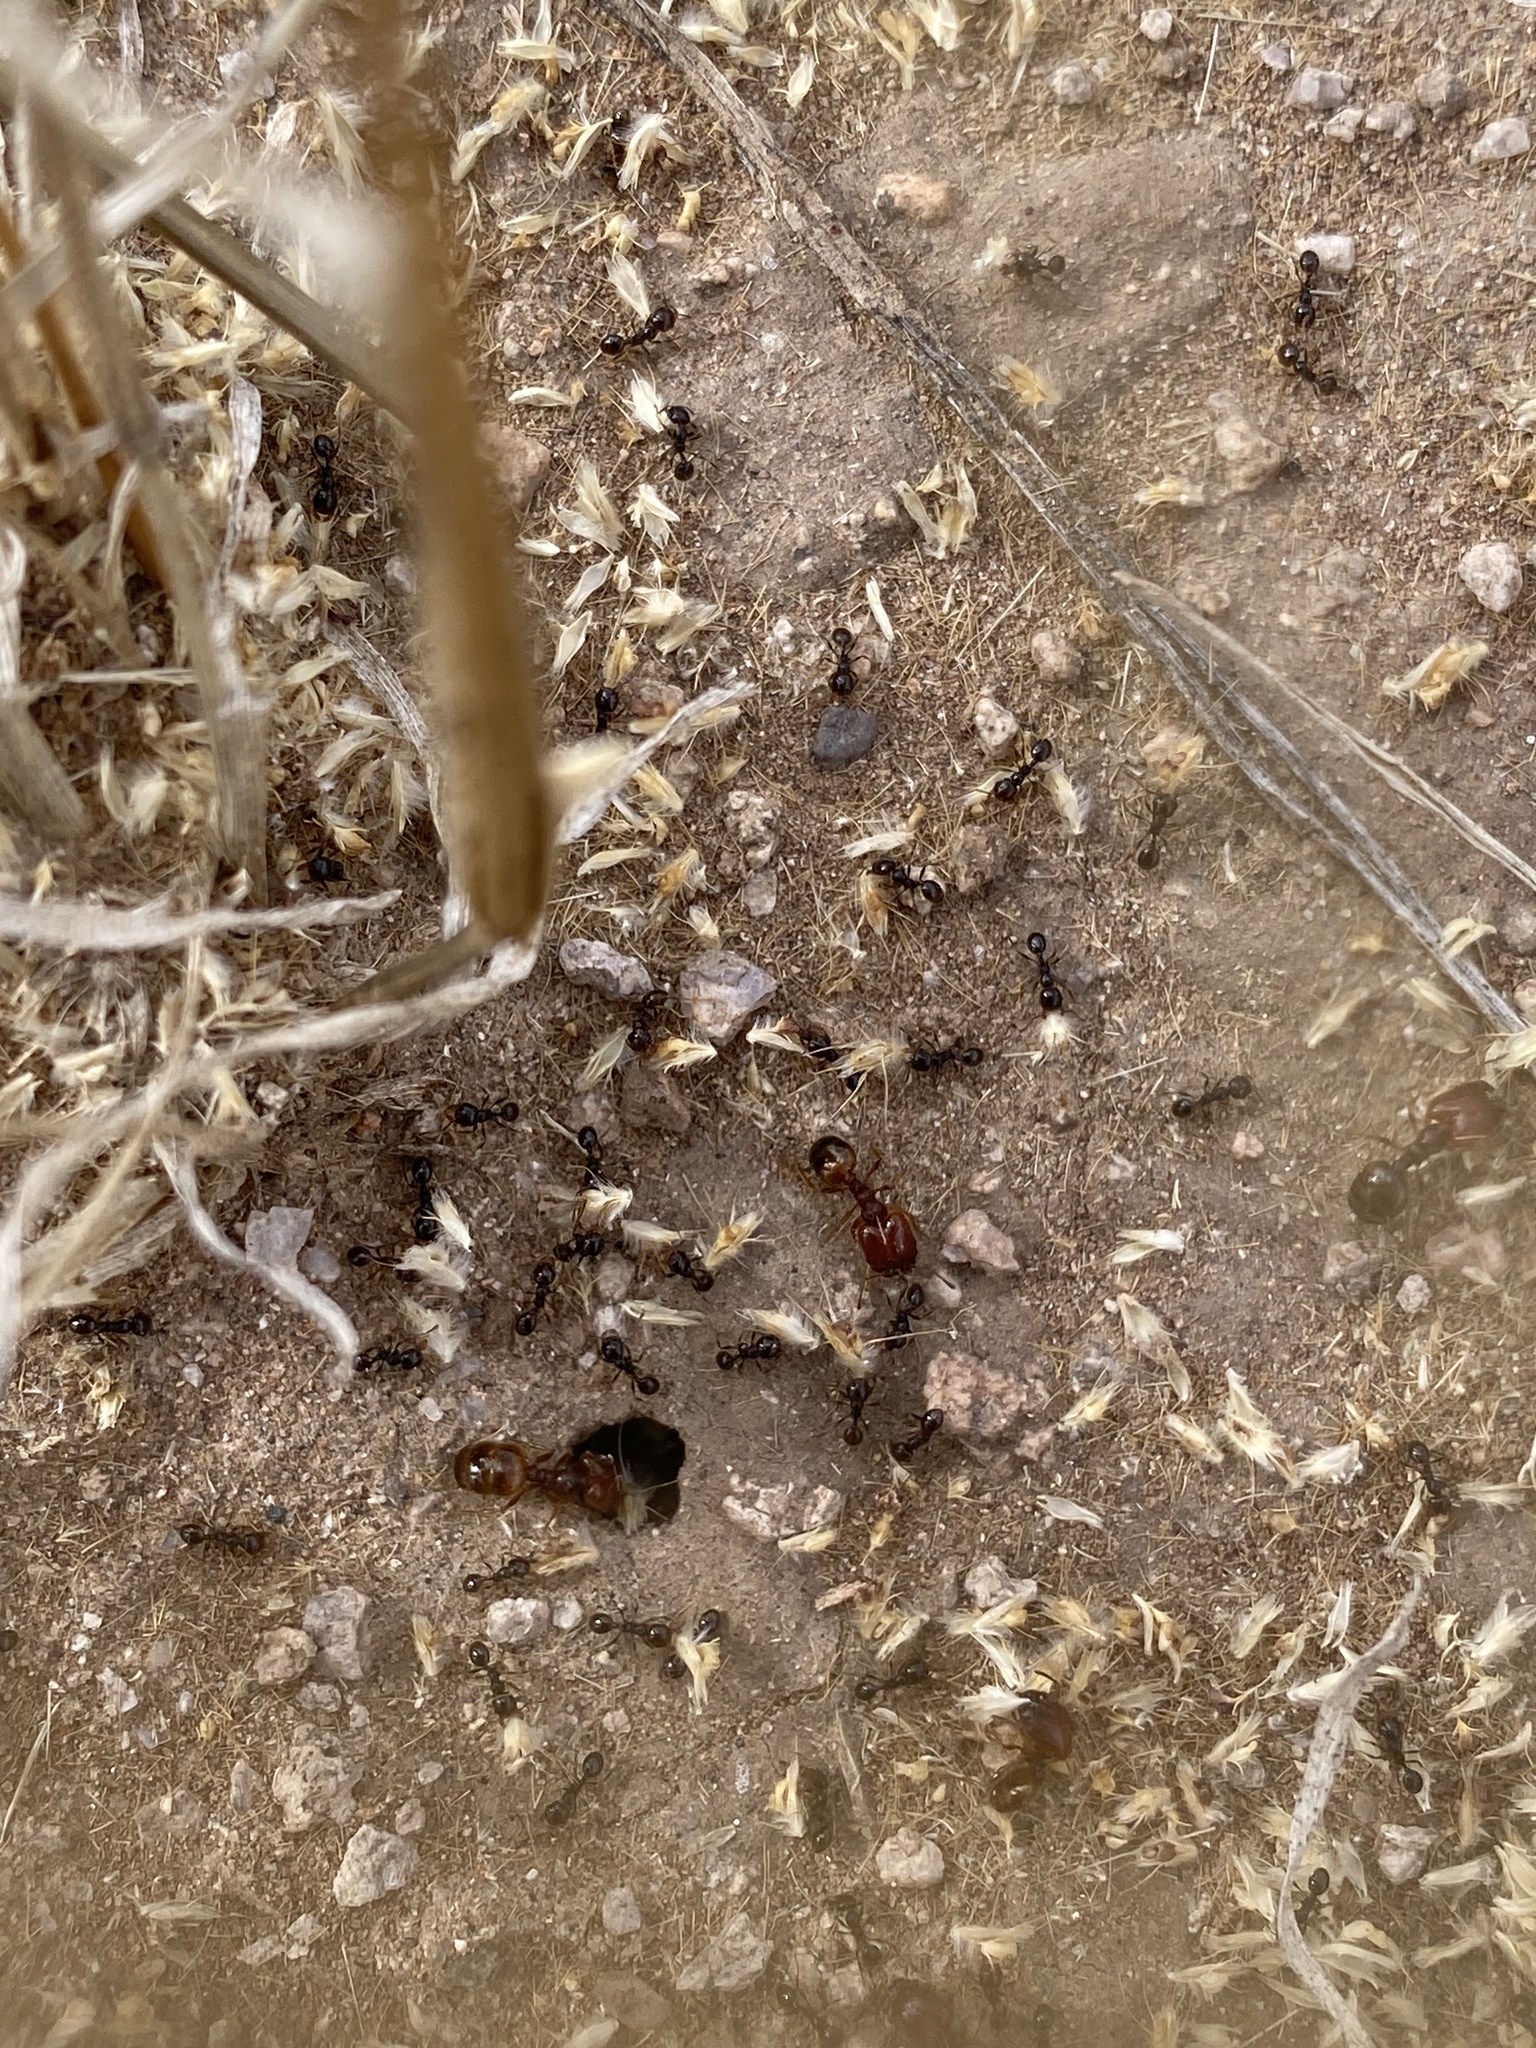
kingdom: Animalia
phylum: Arthropoda
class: Insecta
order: Hymenoptera
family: Formicidae
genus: Pheidole
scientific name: Pheidole xerophila
